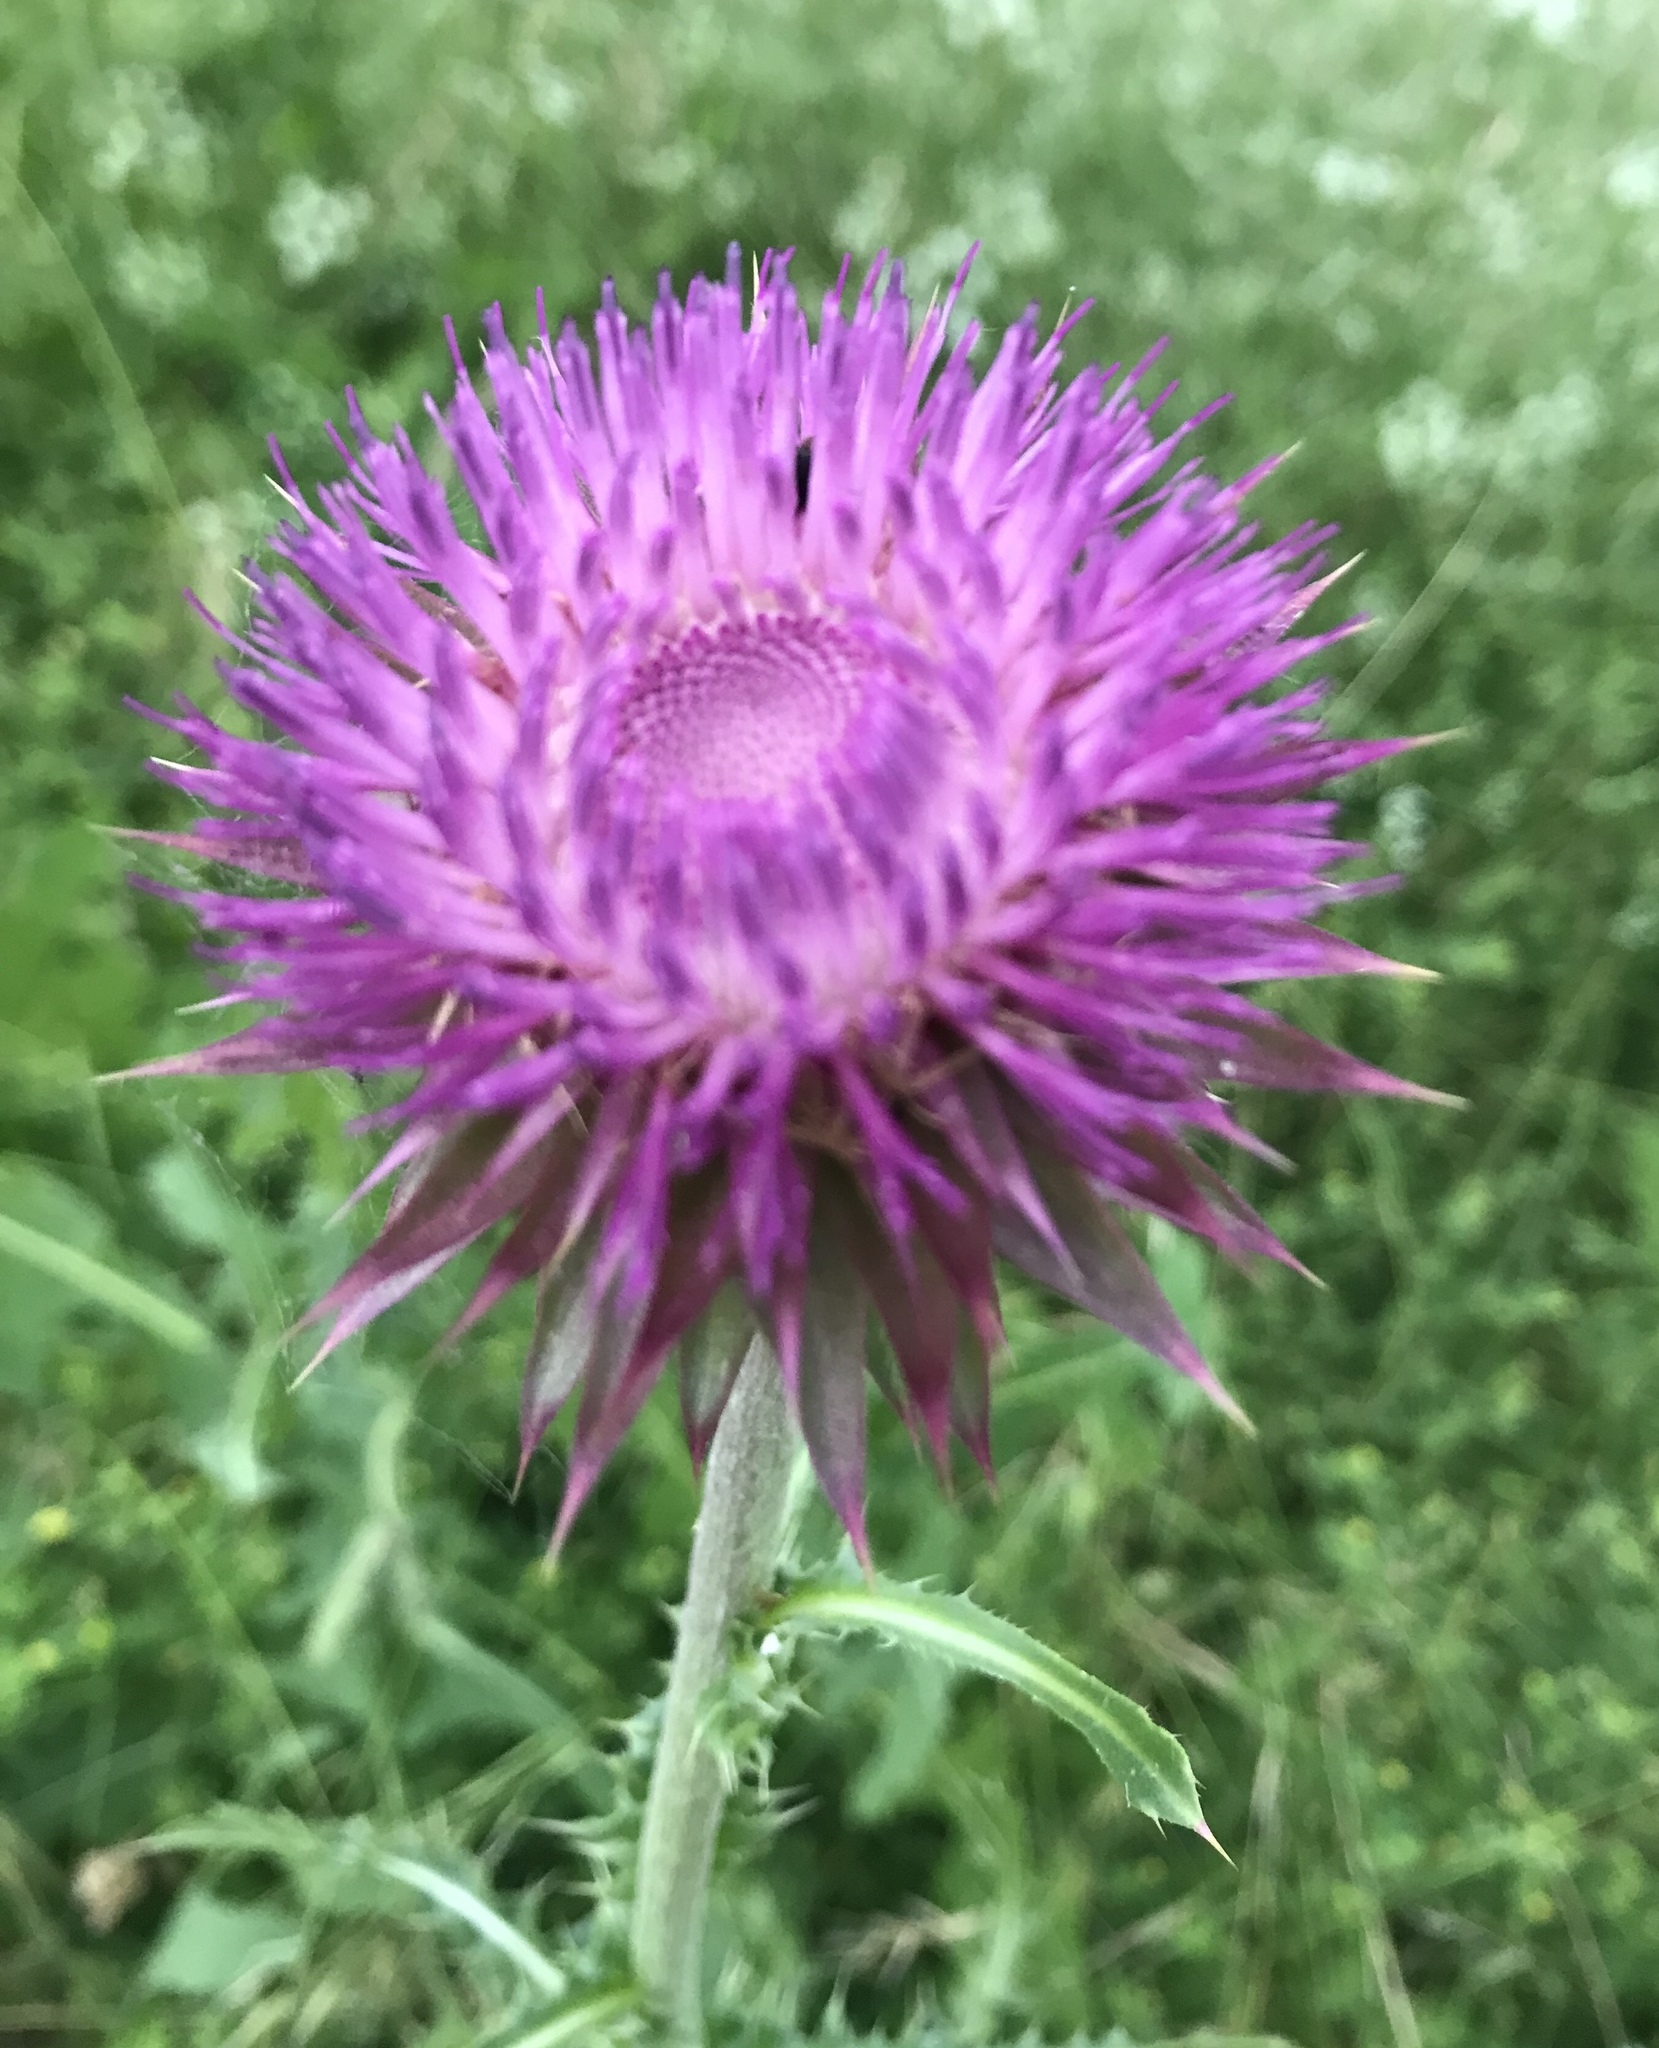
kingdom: Plantae
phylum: Tracheophyta
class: Magnoliopsida
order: Asterales
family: Asteraceae
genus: Carduus
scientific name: Carduus nutans
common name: Musk thistle
